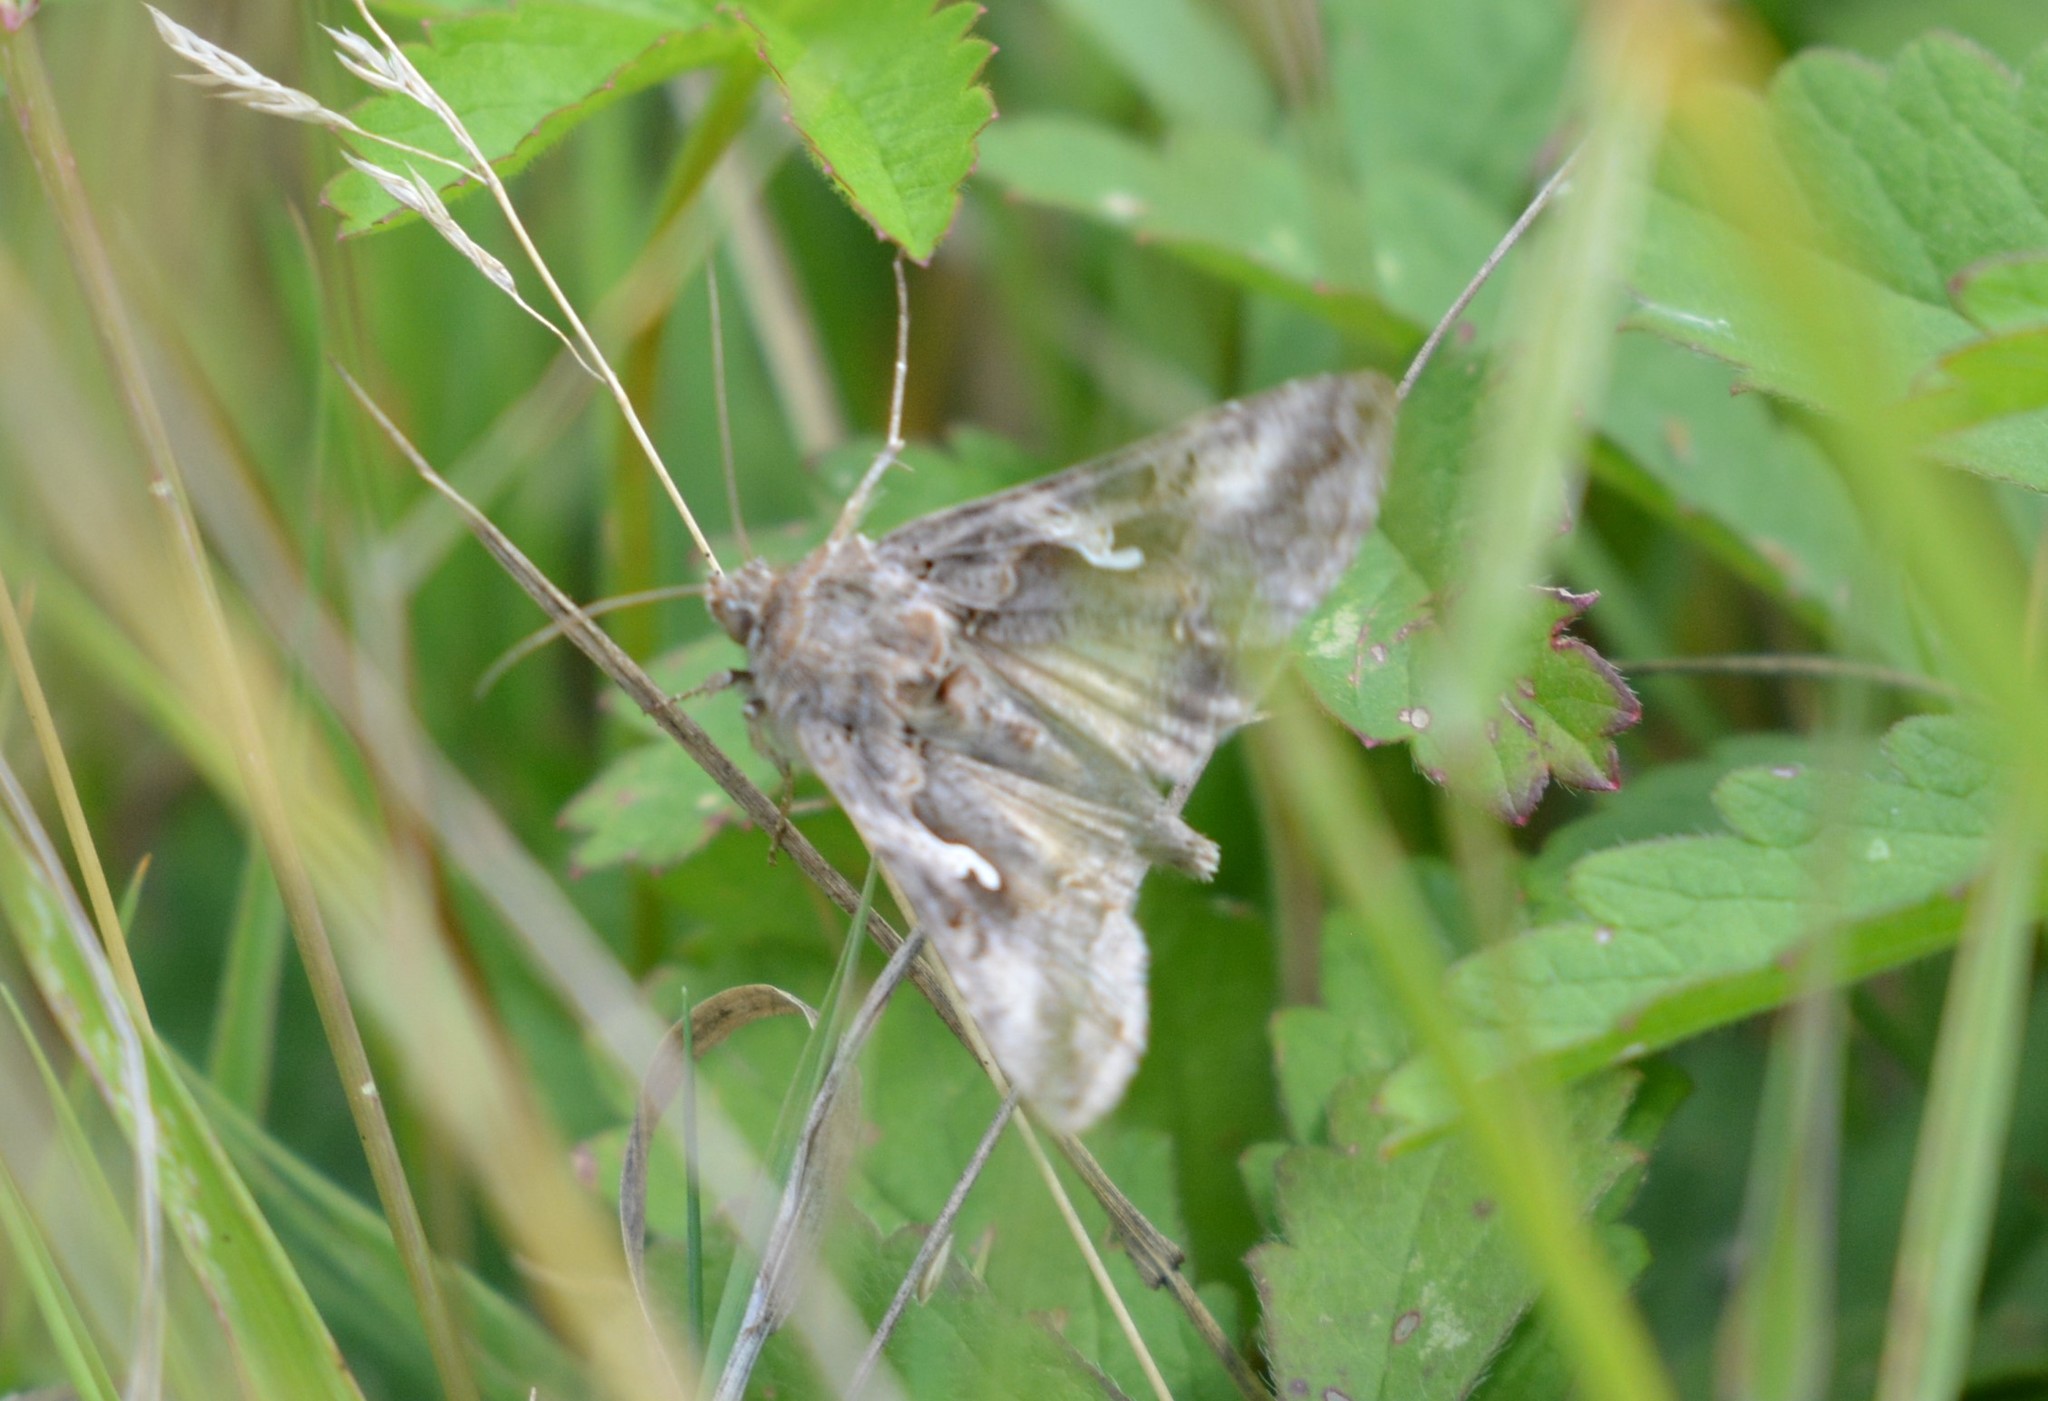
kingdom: Animalia
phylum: Arthropoda
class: Insecta
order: Lepidoptera
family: Noctuidae
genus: Autographa
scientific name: Autographa gamma
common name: Silver y
